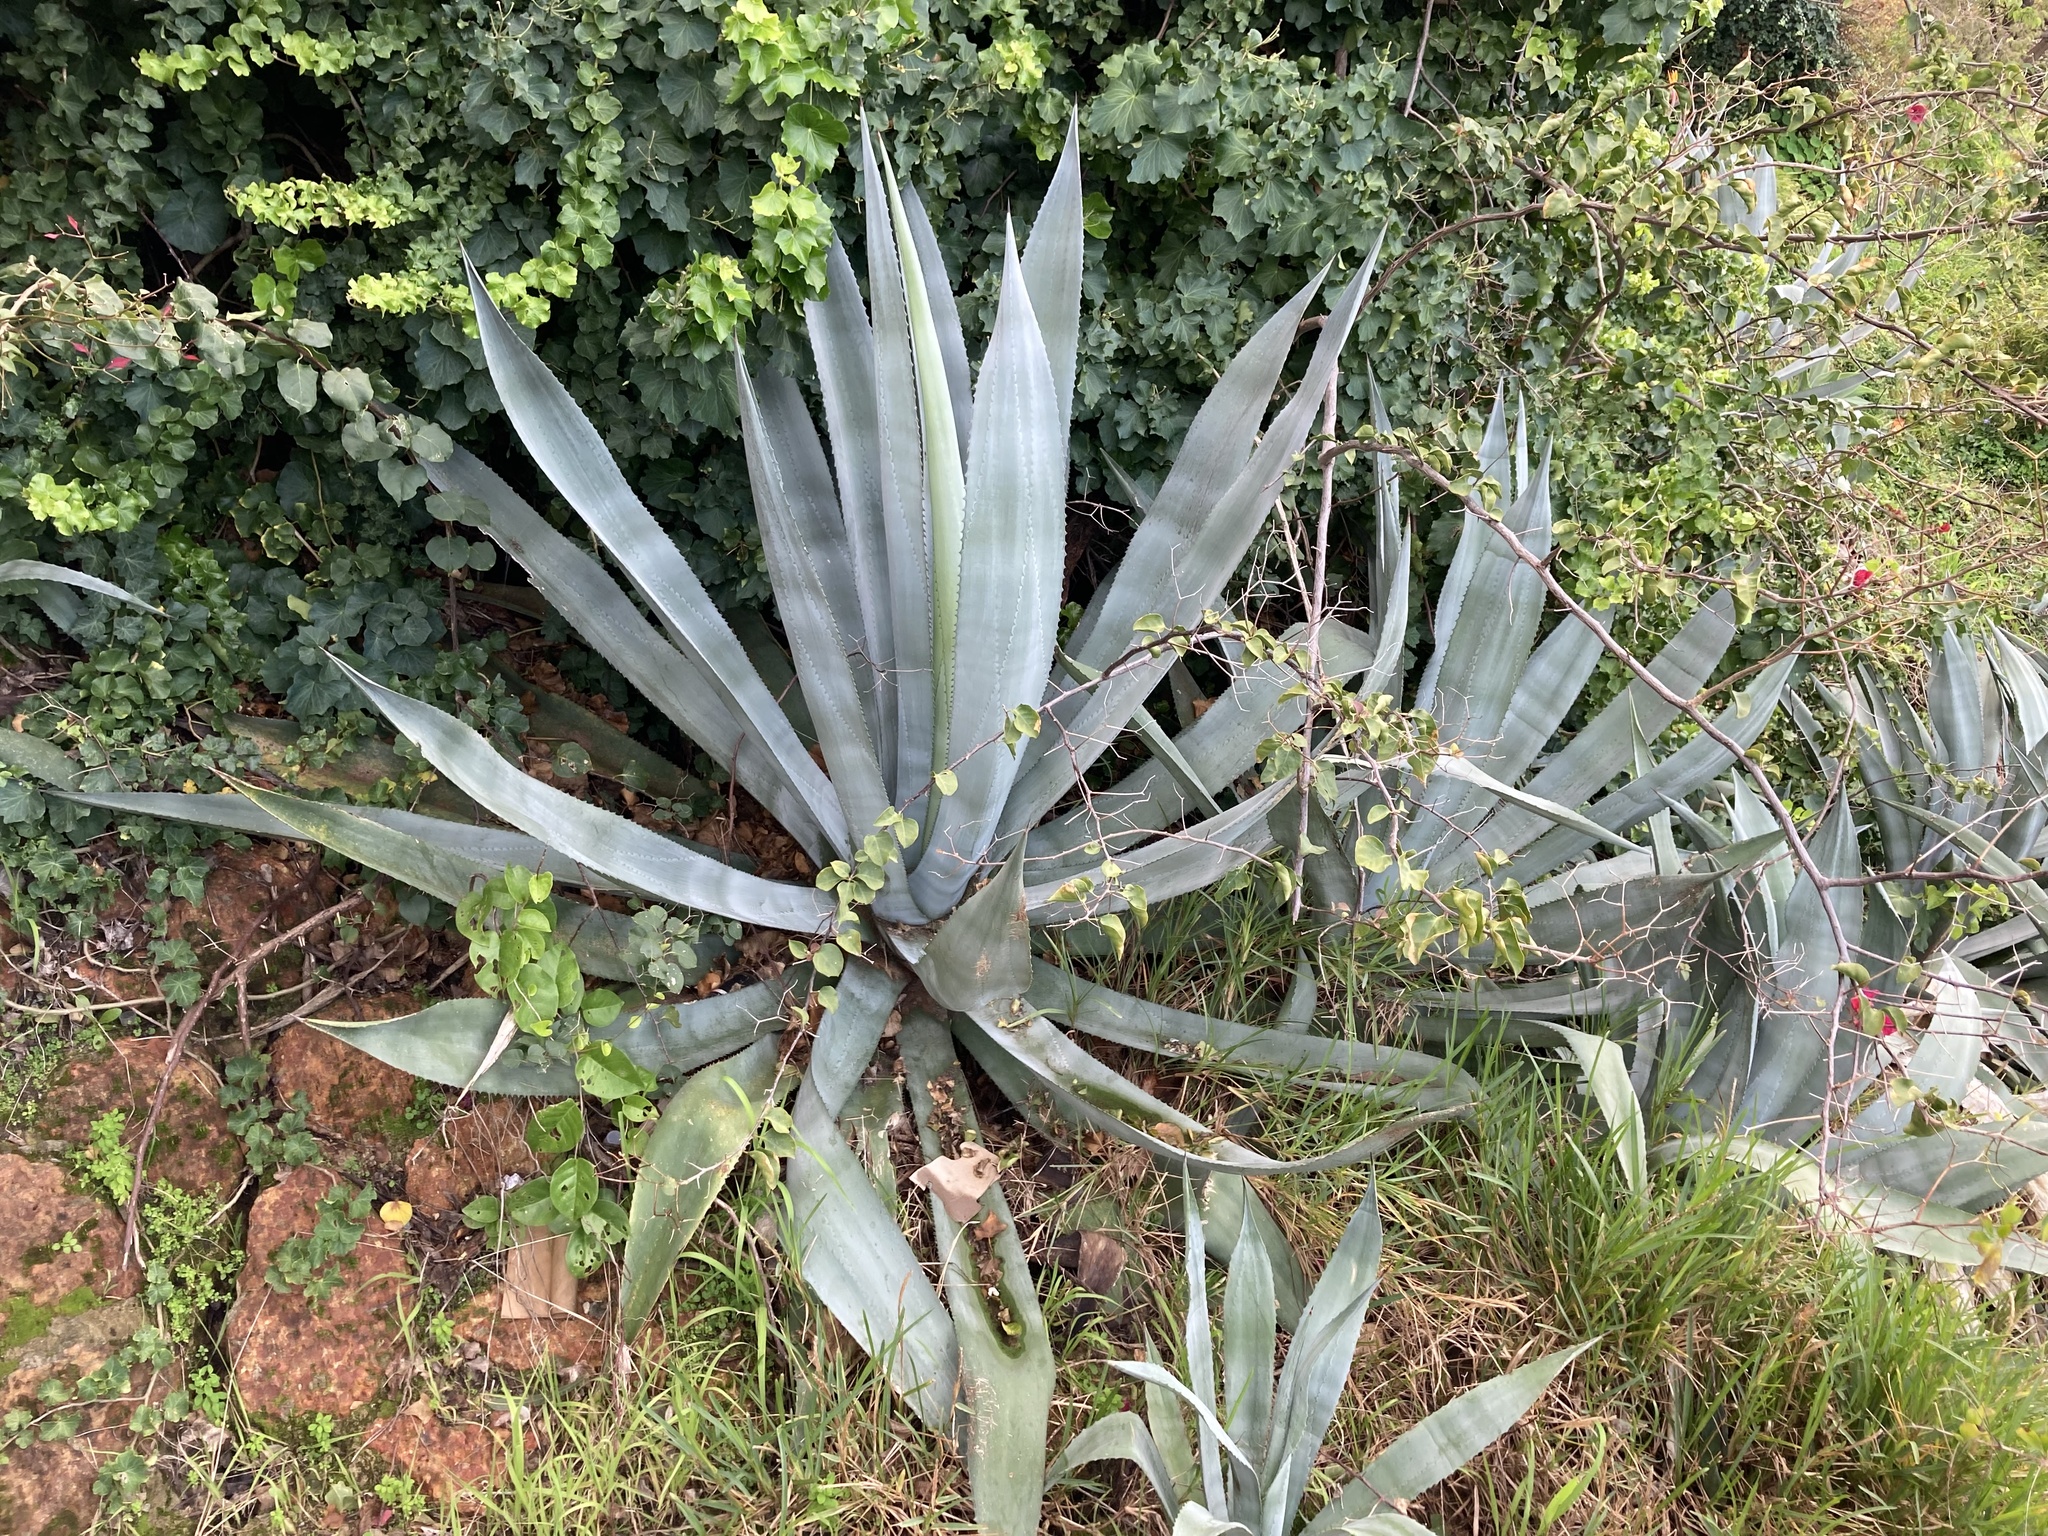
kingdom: Plantae
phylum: Tracheophyta
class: Liliopsida
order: Asparagales
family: Asparagaceae
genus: Agave
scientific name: Agave americana
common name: Centuryplant
